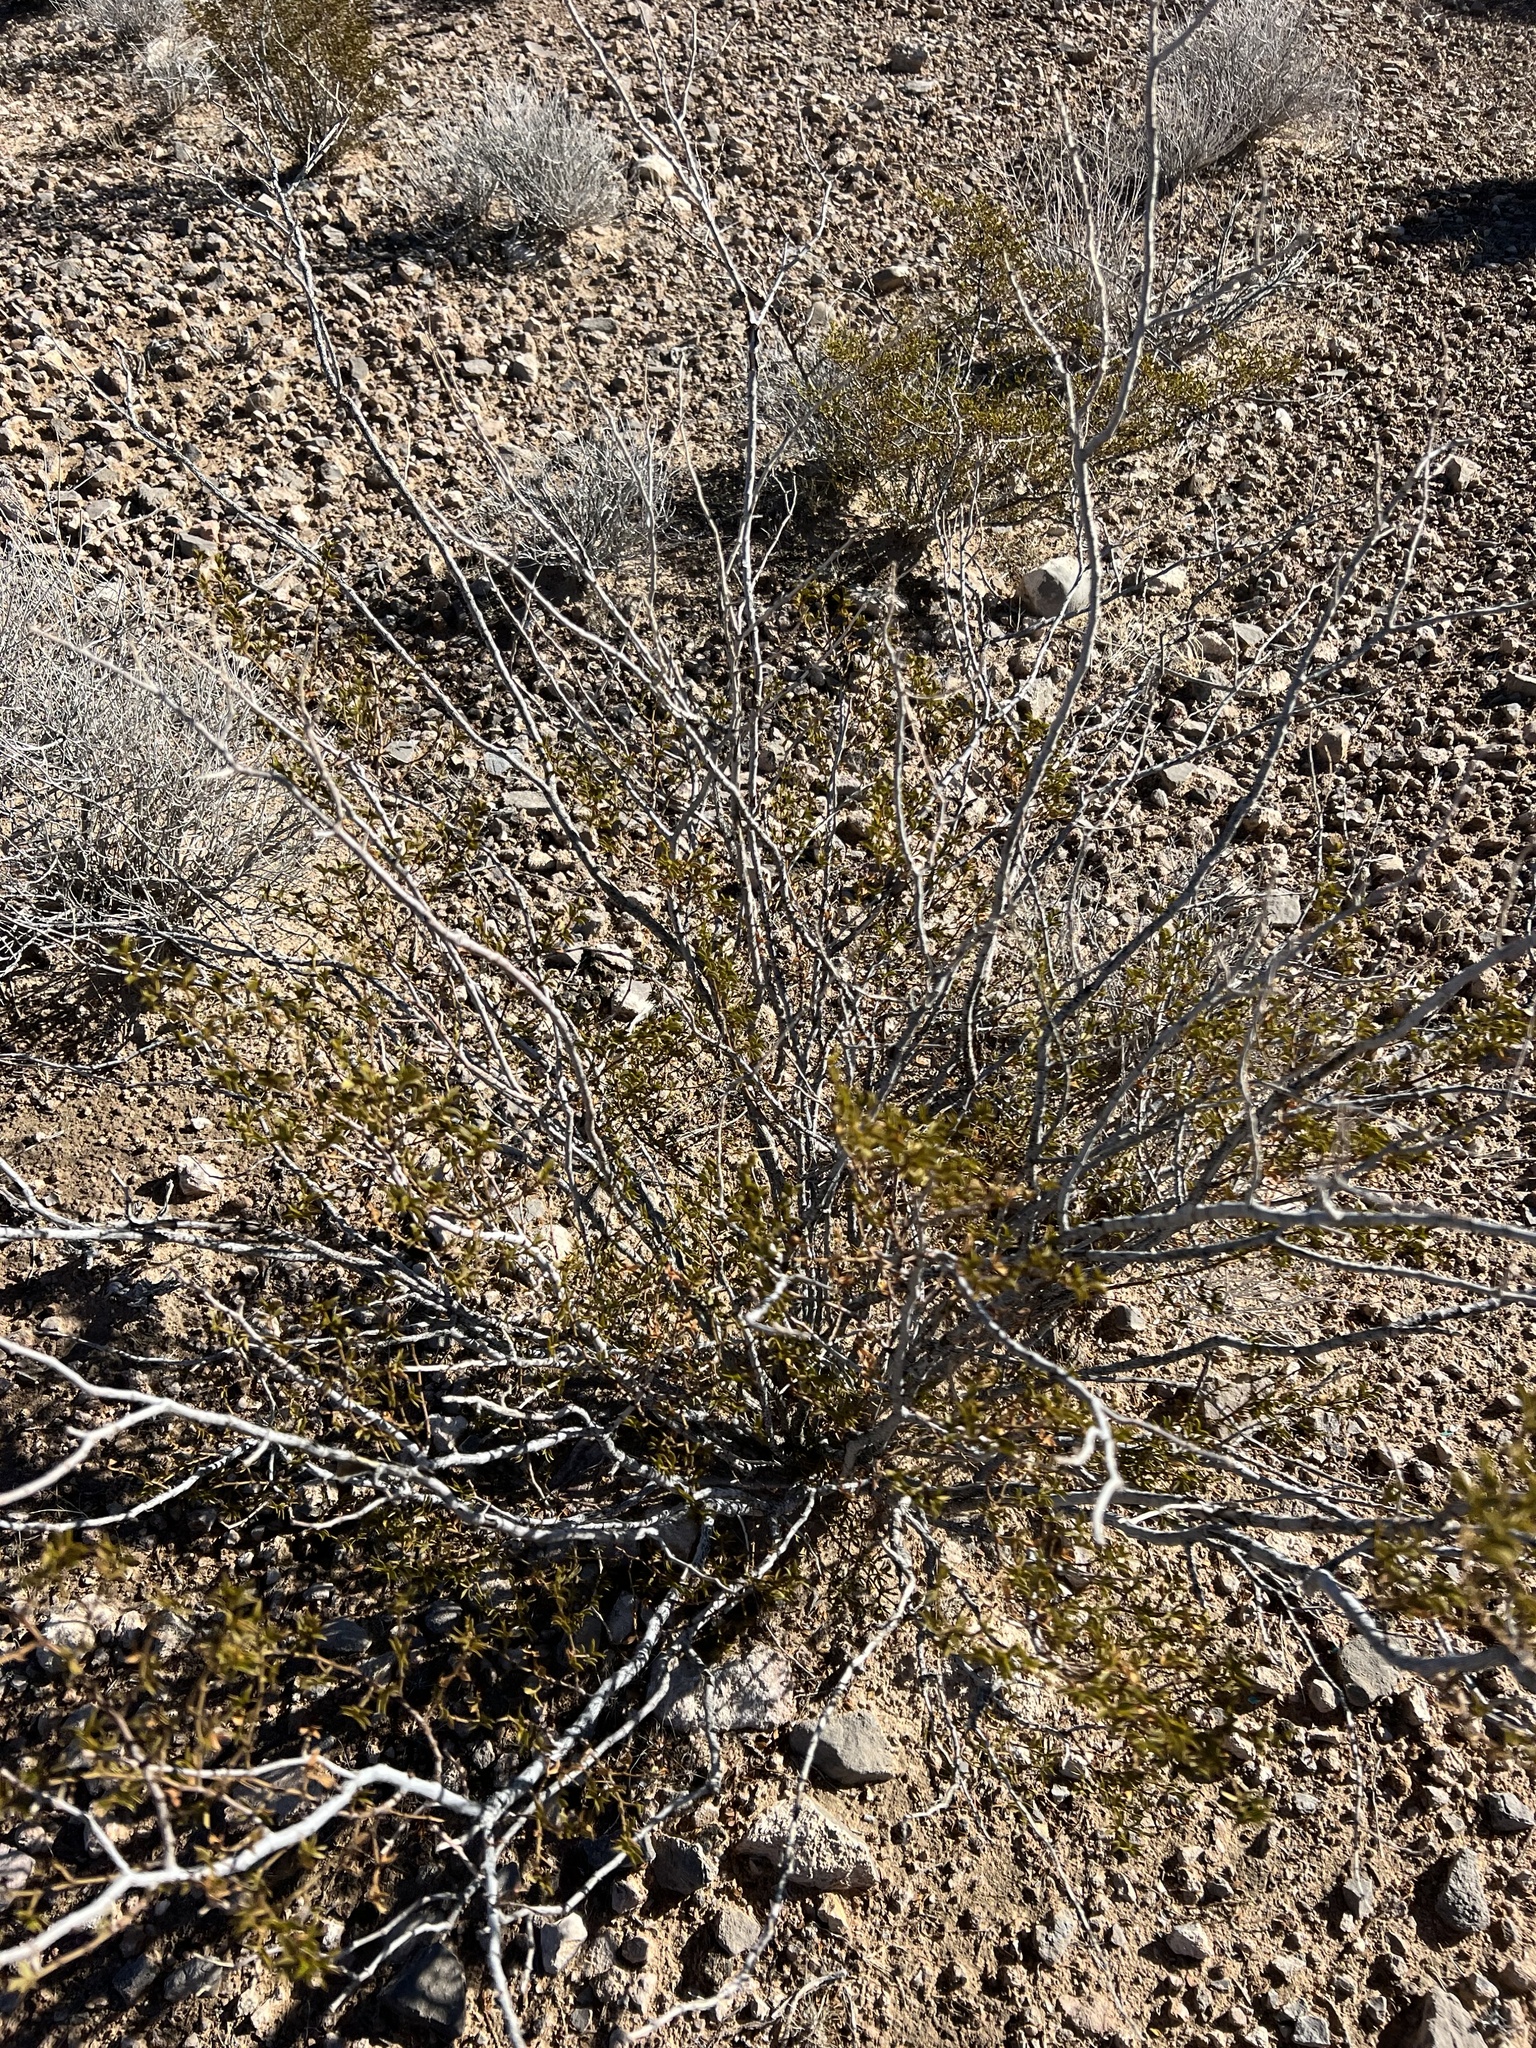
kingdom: Plantae
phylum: Tracheophyta
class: Magnoliopsida
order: Zygophyllales
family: Zygophyllaceae
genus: Larrea
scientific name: Larrea tridentata
